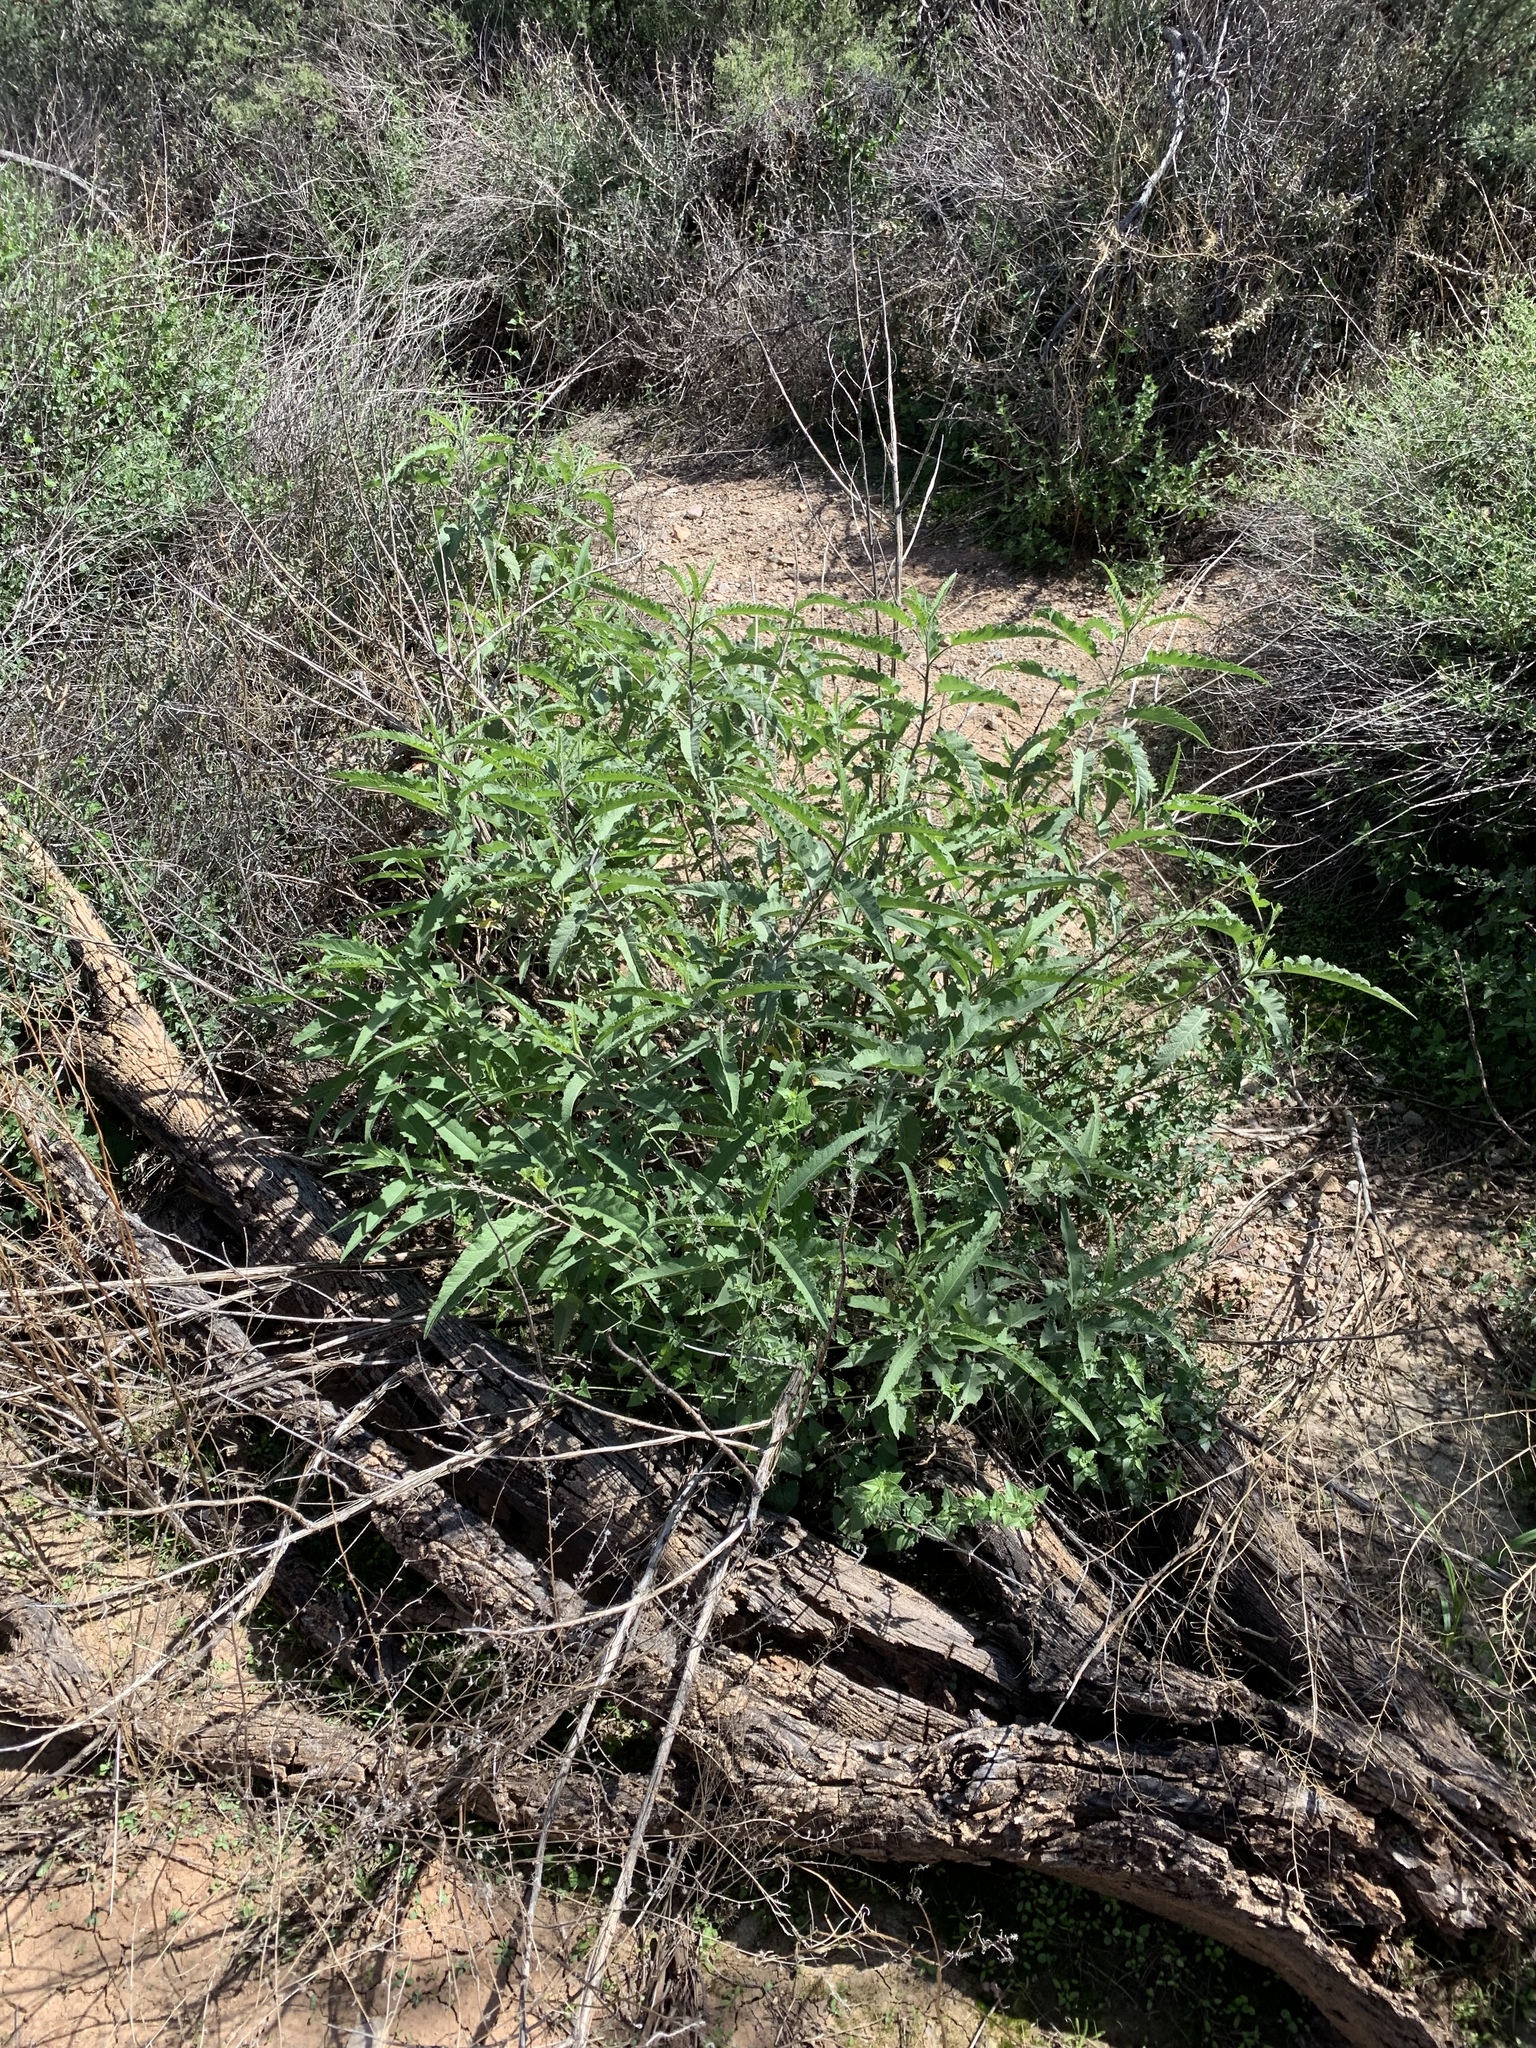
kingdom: Plantae
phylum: Tracheophyta
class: Magnoliopsida
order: Asterales
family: Asteraceae
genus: Ambrosia
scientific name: Ambrosia ambrosioides
